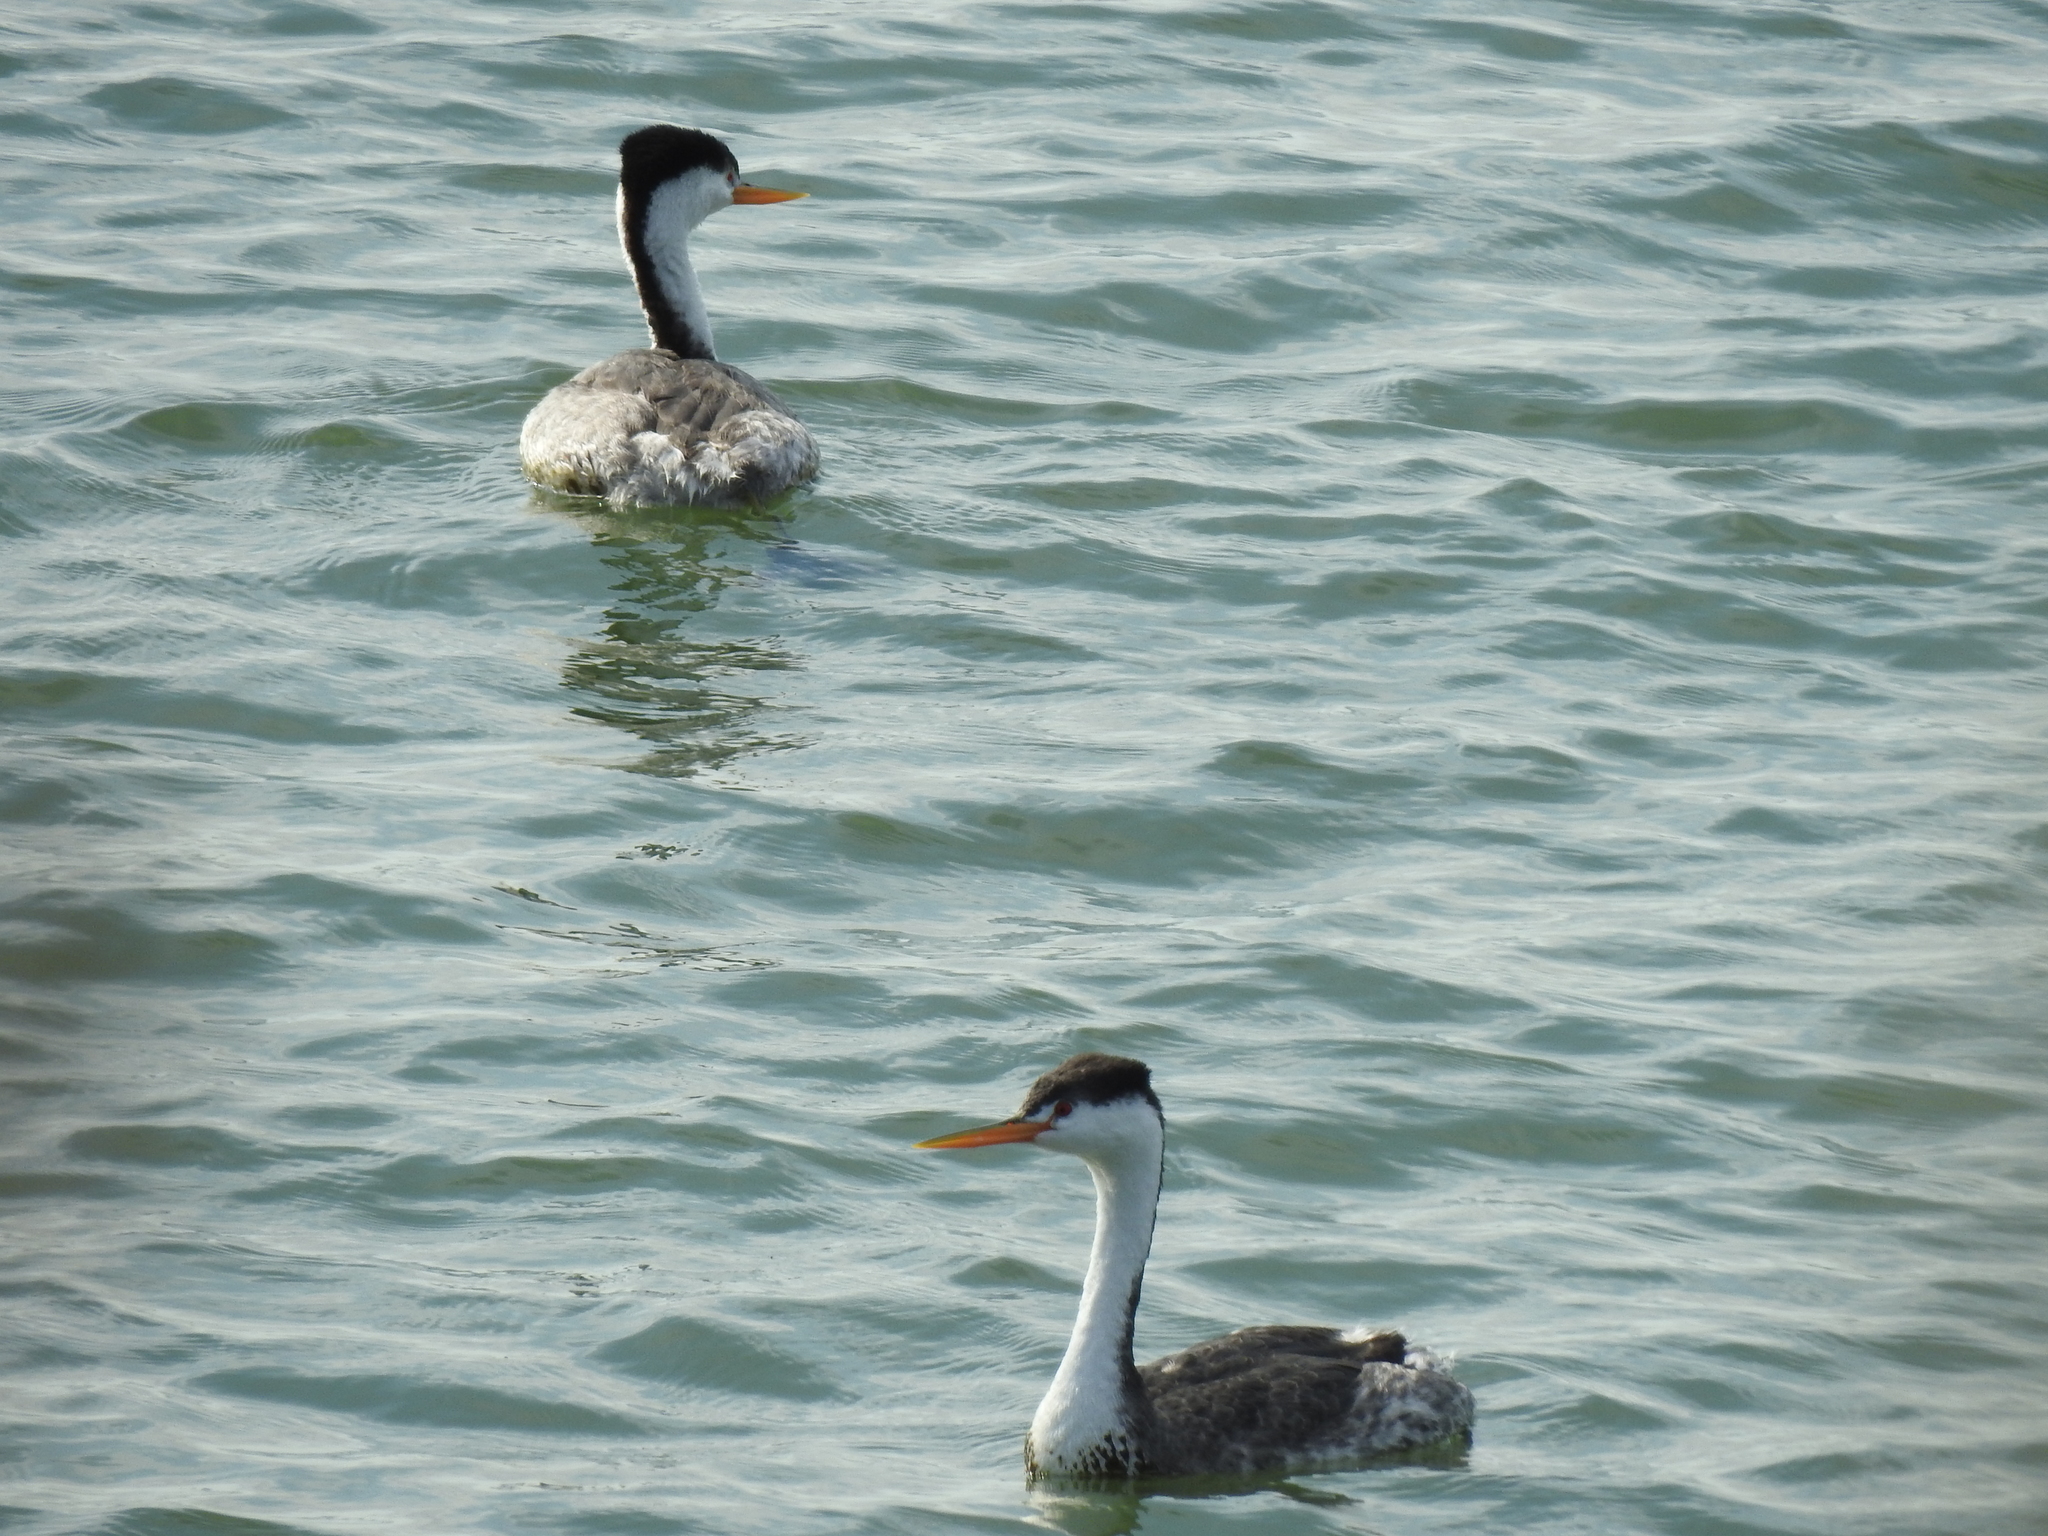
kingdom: Animalia
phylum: Chordata
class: Aves
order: Podicipediformes
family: Podicipedidae
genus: Aechmophorus
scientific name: Aechmophorus clarkii
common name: Clark's grebe
